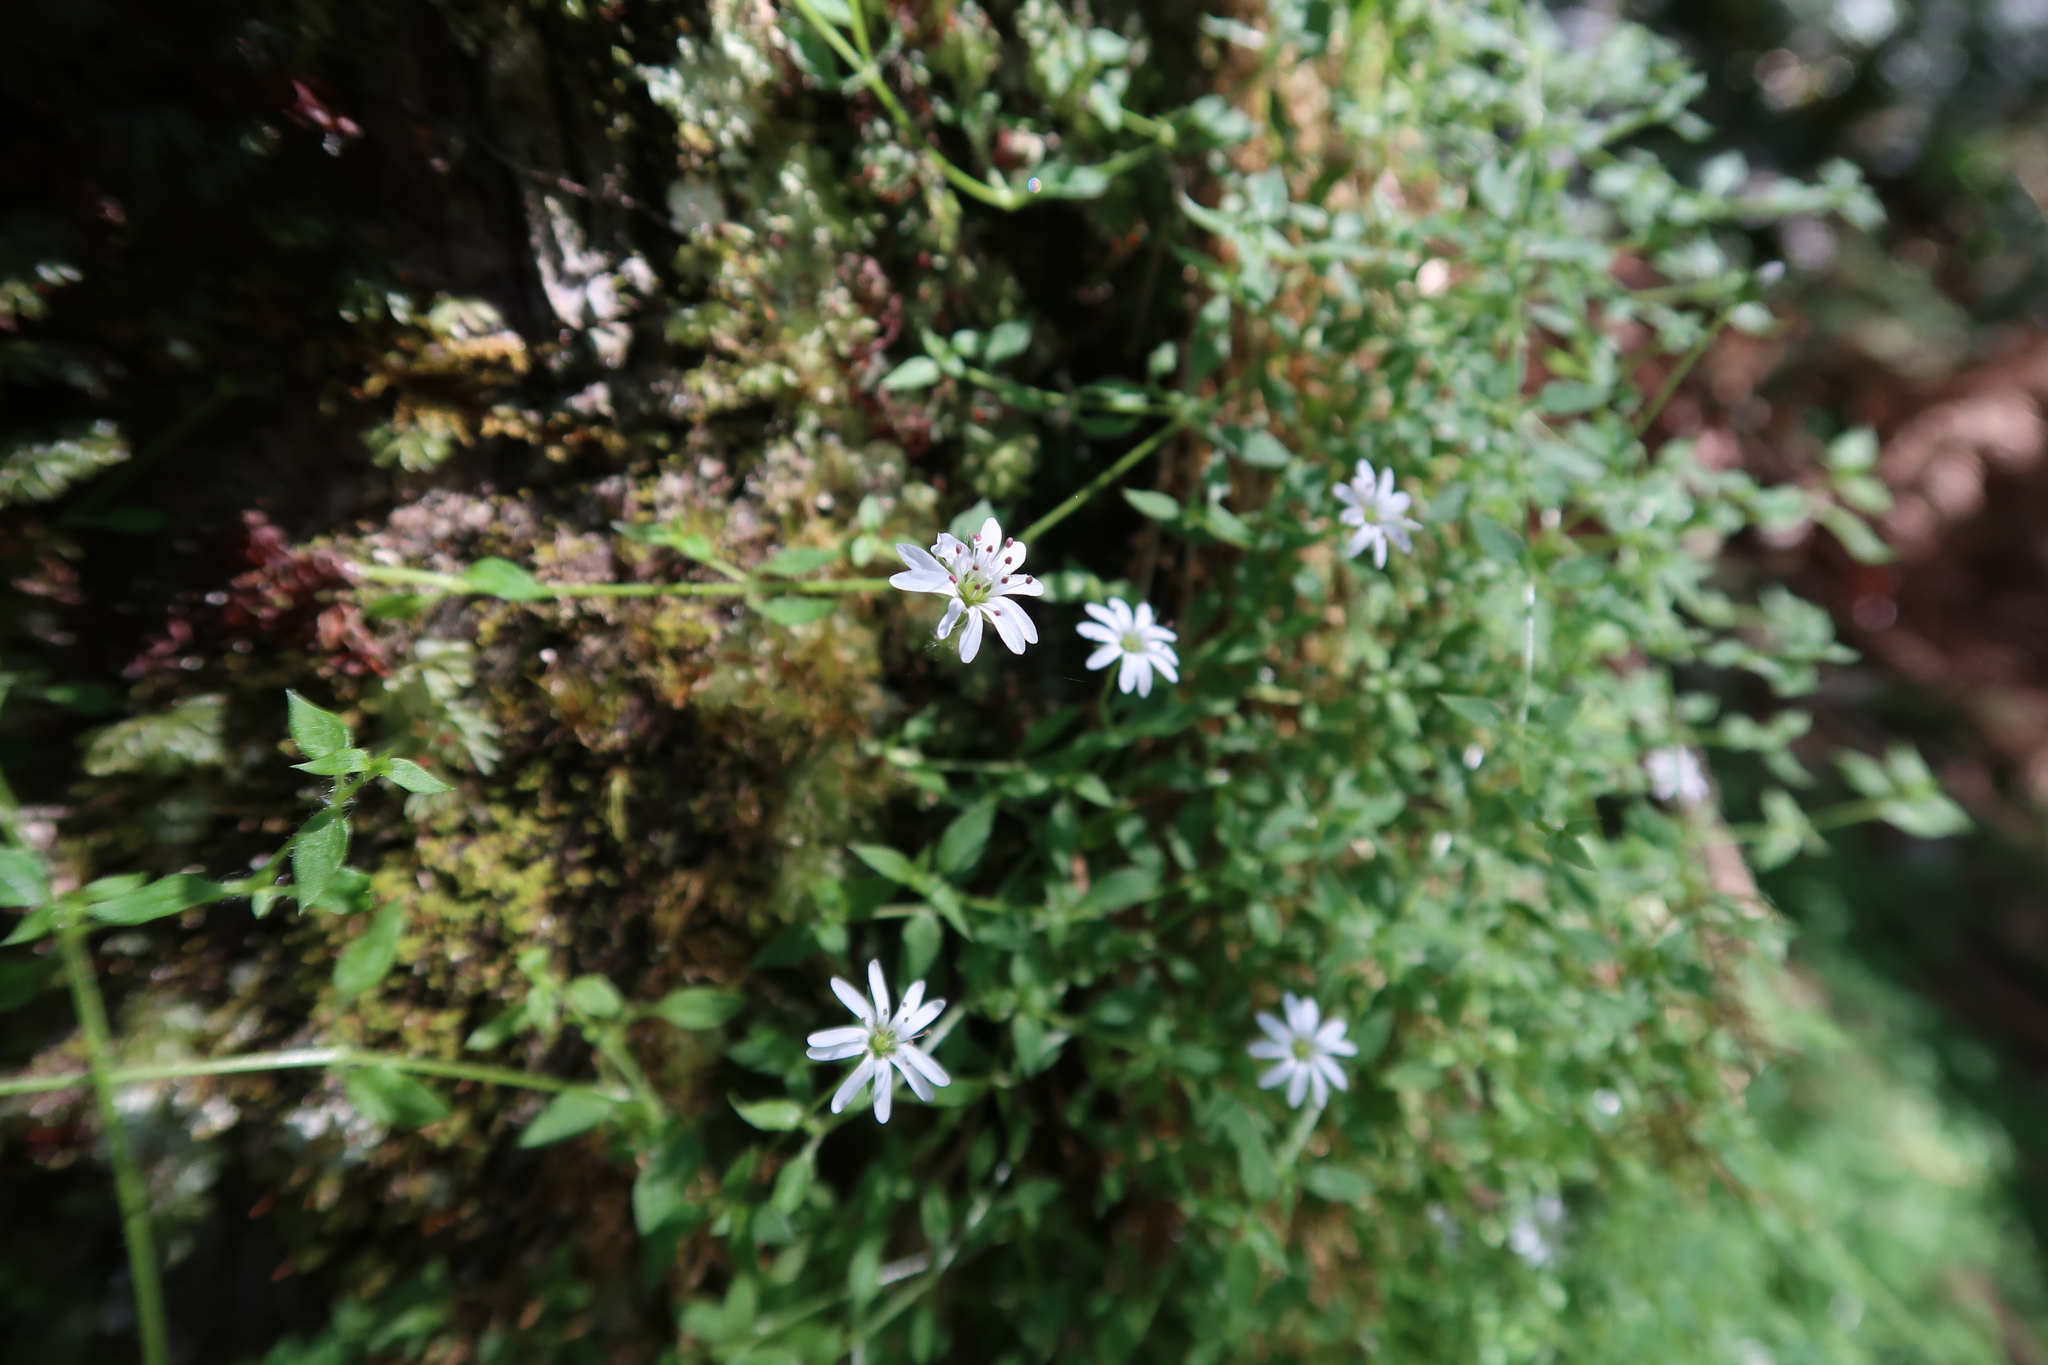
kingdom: Plantae
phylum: Tracheophyta
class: Magnoliopsida
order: Caryophyllales
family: Caryophyllaceae
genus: Stellaria
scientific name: Stellaria flaccida
